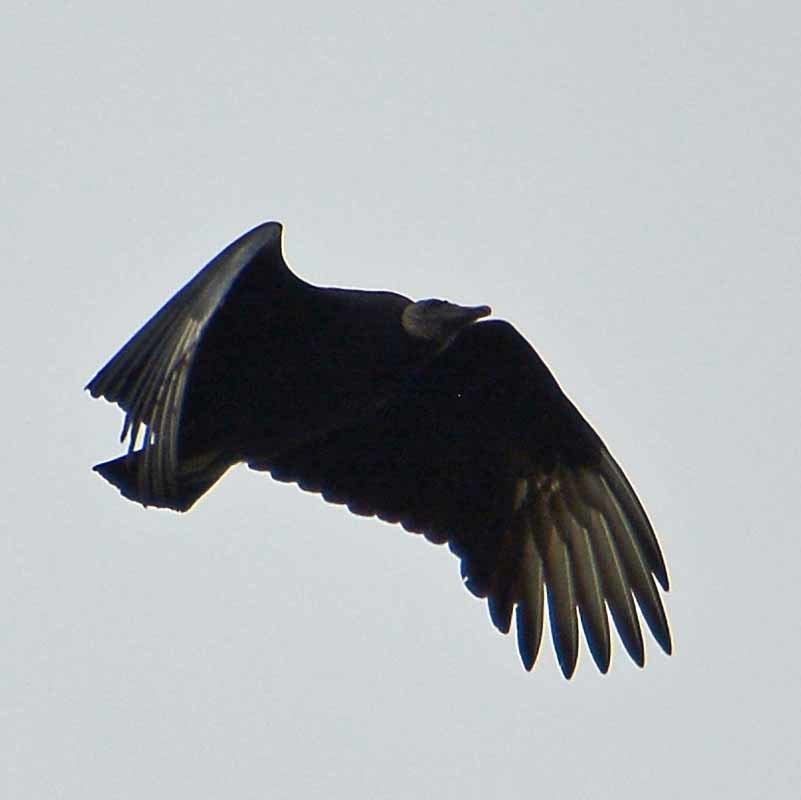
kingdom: Animalia
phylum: Chordata
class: Aves
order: Accipitriformes
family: Cathartidae
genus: Coragyps
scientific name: Coragyps atratus
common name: Black vulture
